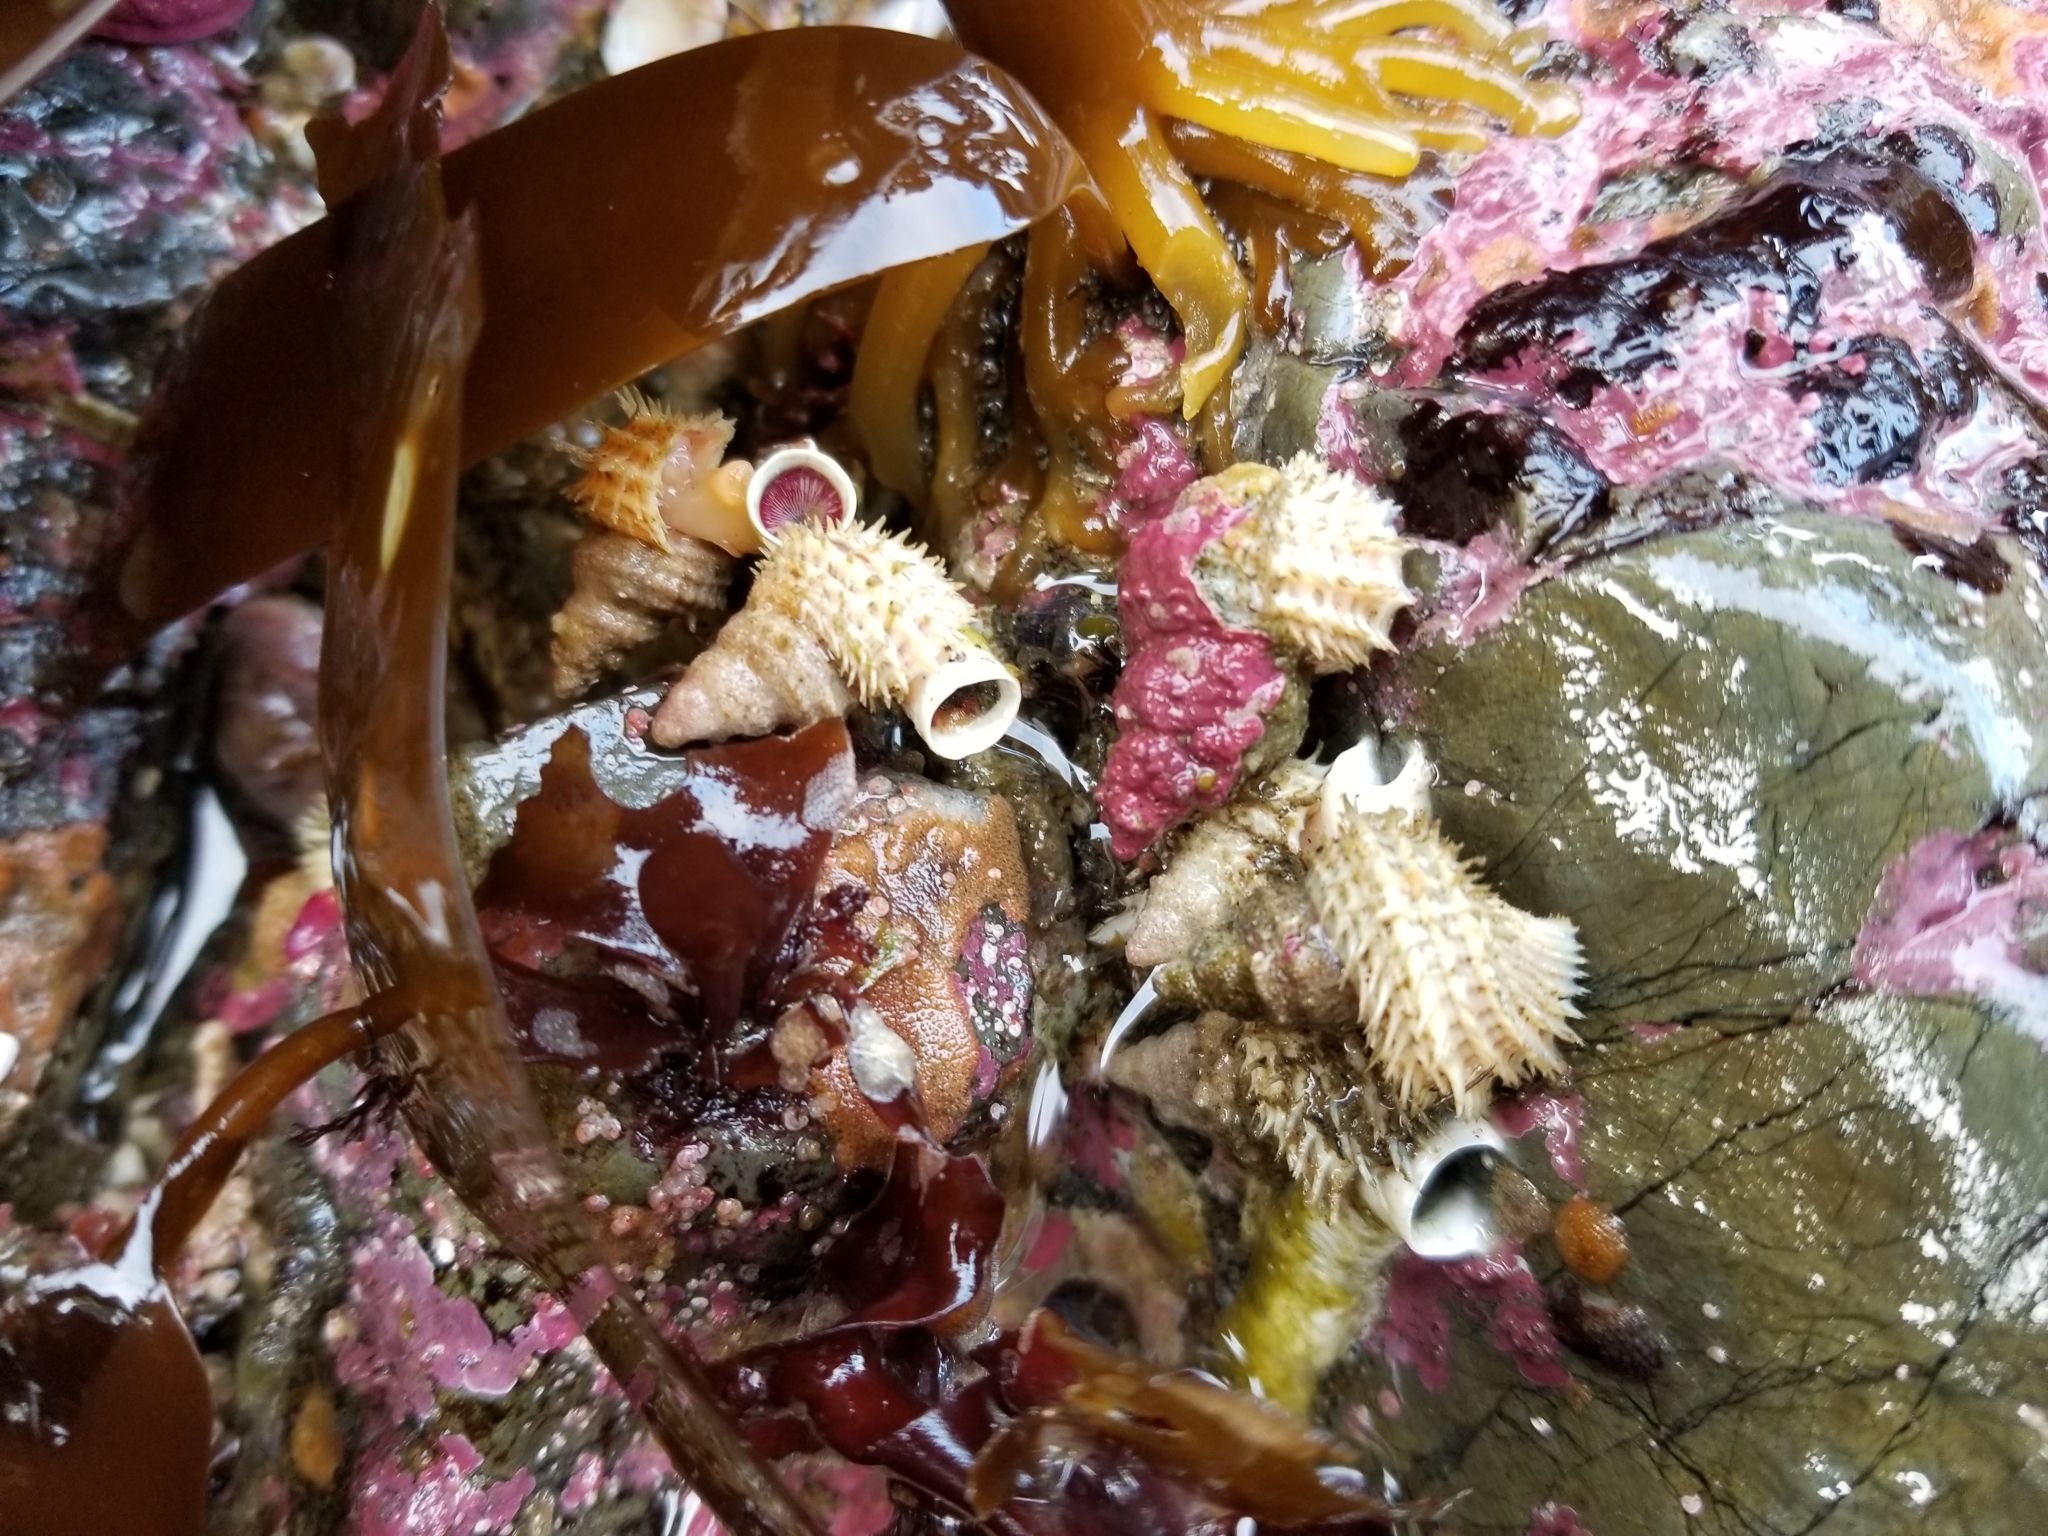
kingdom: Animalia
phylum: Mollusca
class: Gastropoda
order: Littorinimorpha
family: Capulidae
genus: Trichotropis
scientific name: Trichotropis cancellata
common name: Cancellate hairysnail
